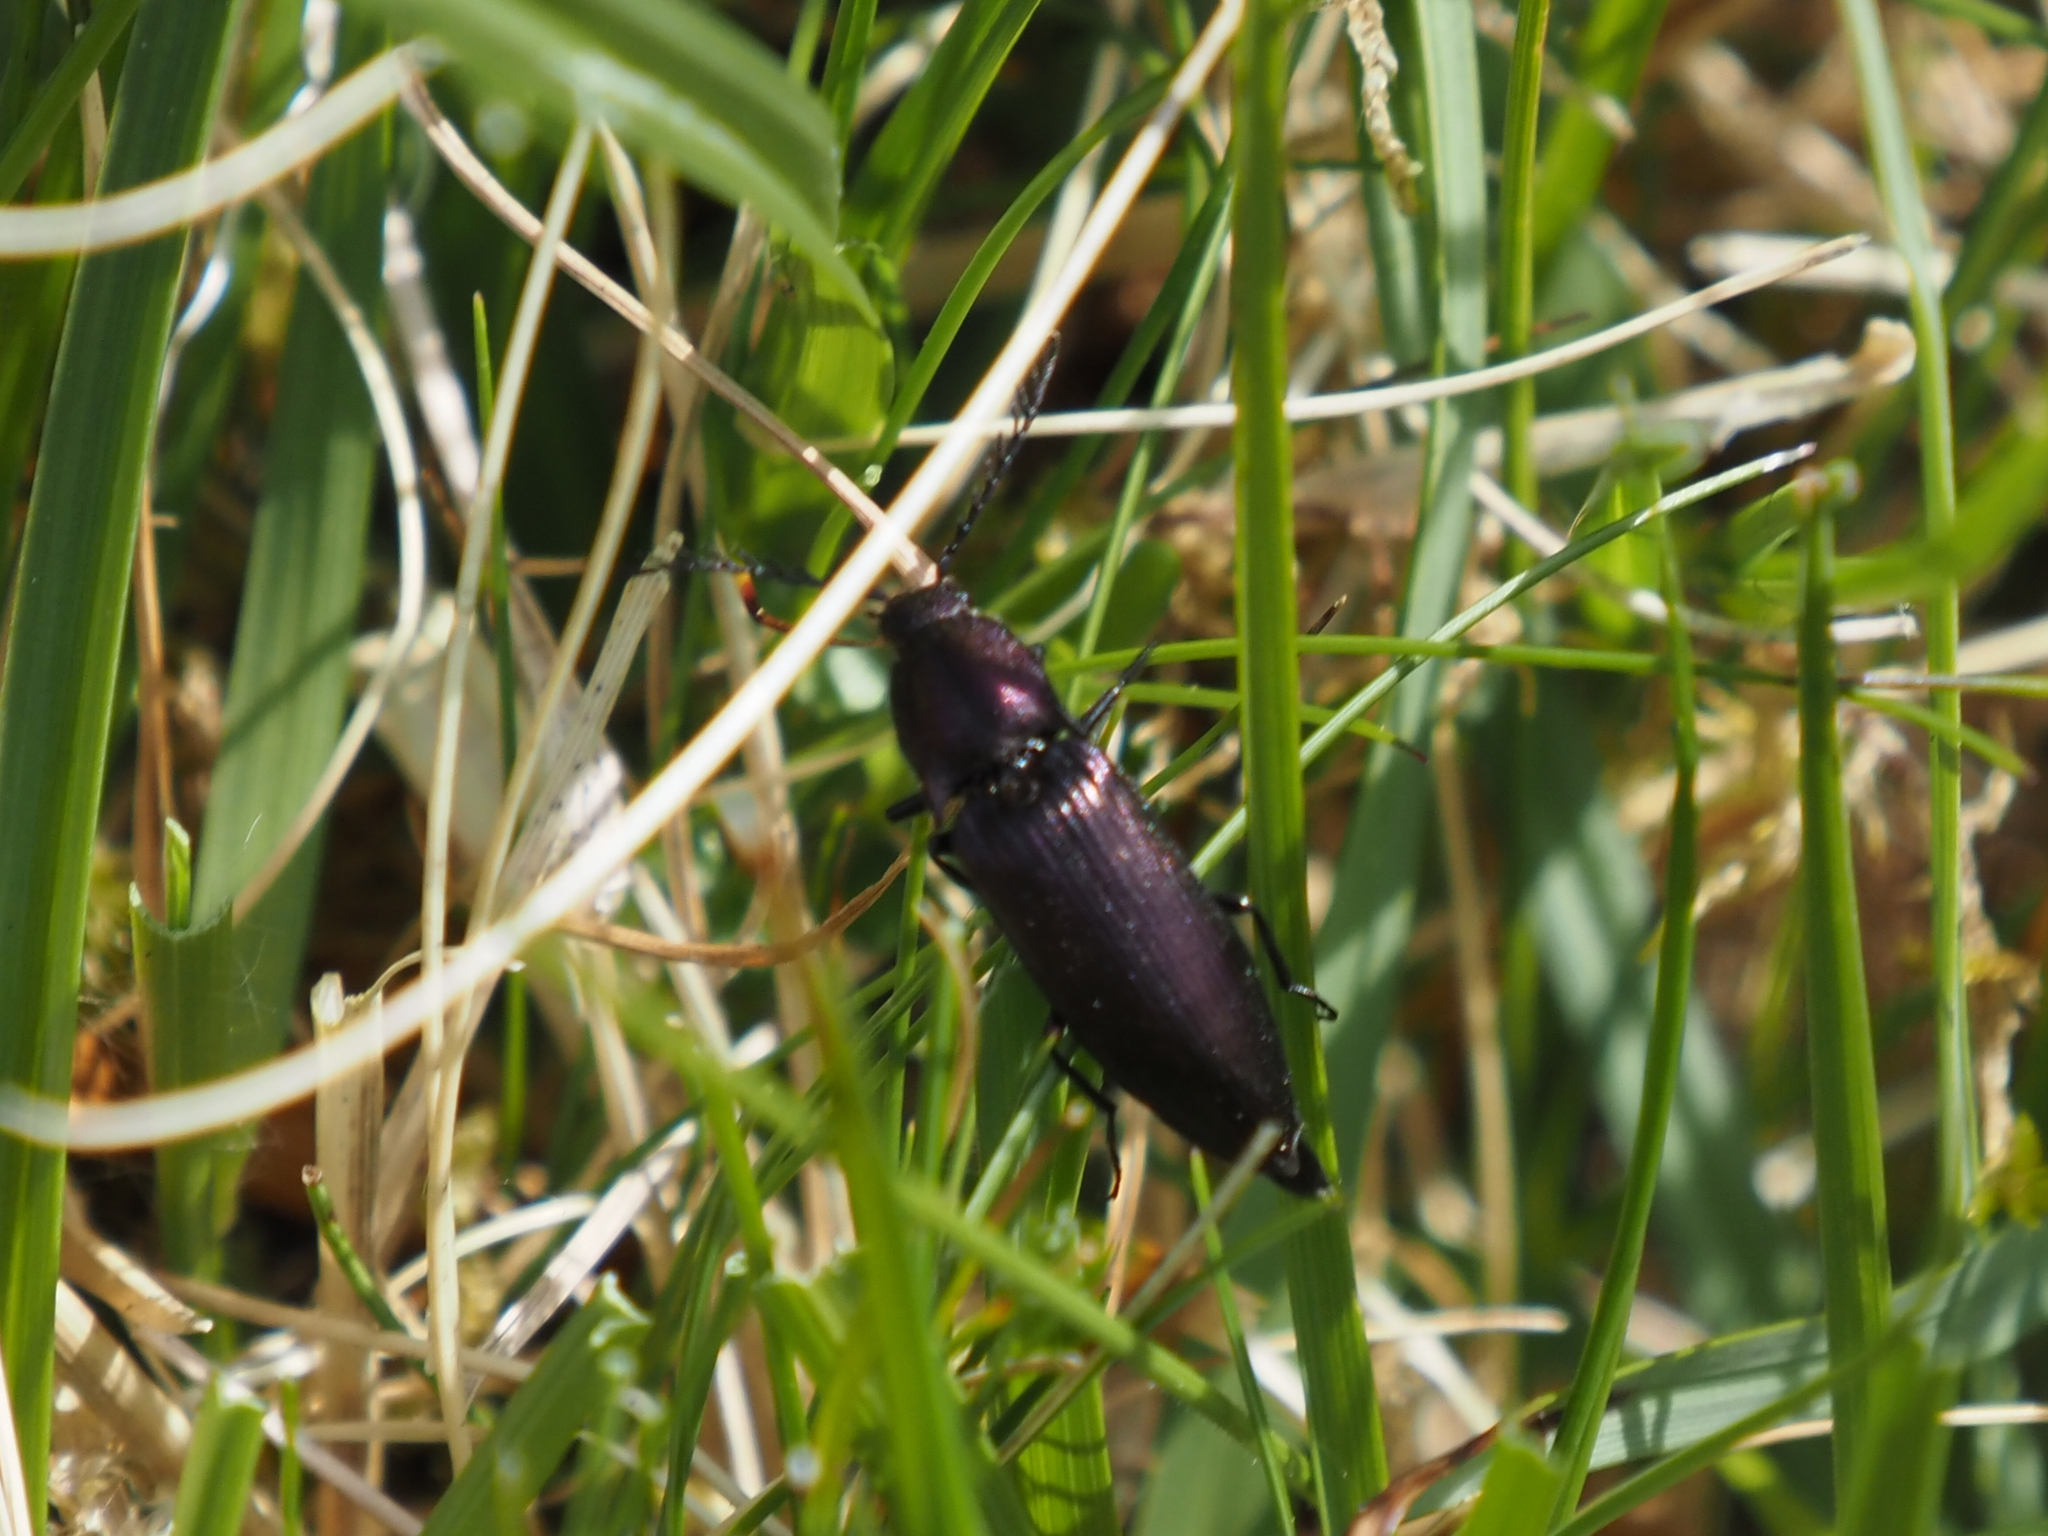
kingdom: Animalia
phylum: Arthropoda
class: Insecta
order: Coleoptera
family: Elateridae
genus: Ctenicera
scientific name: Ctenicera cuprea
